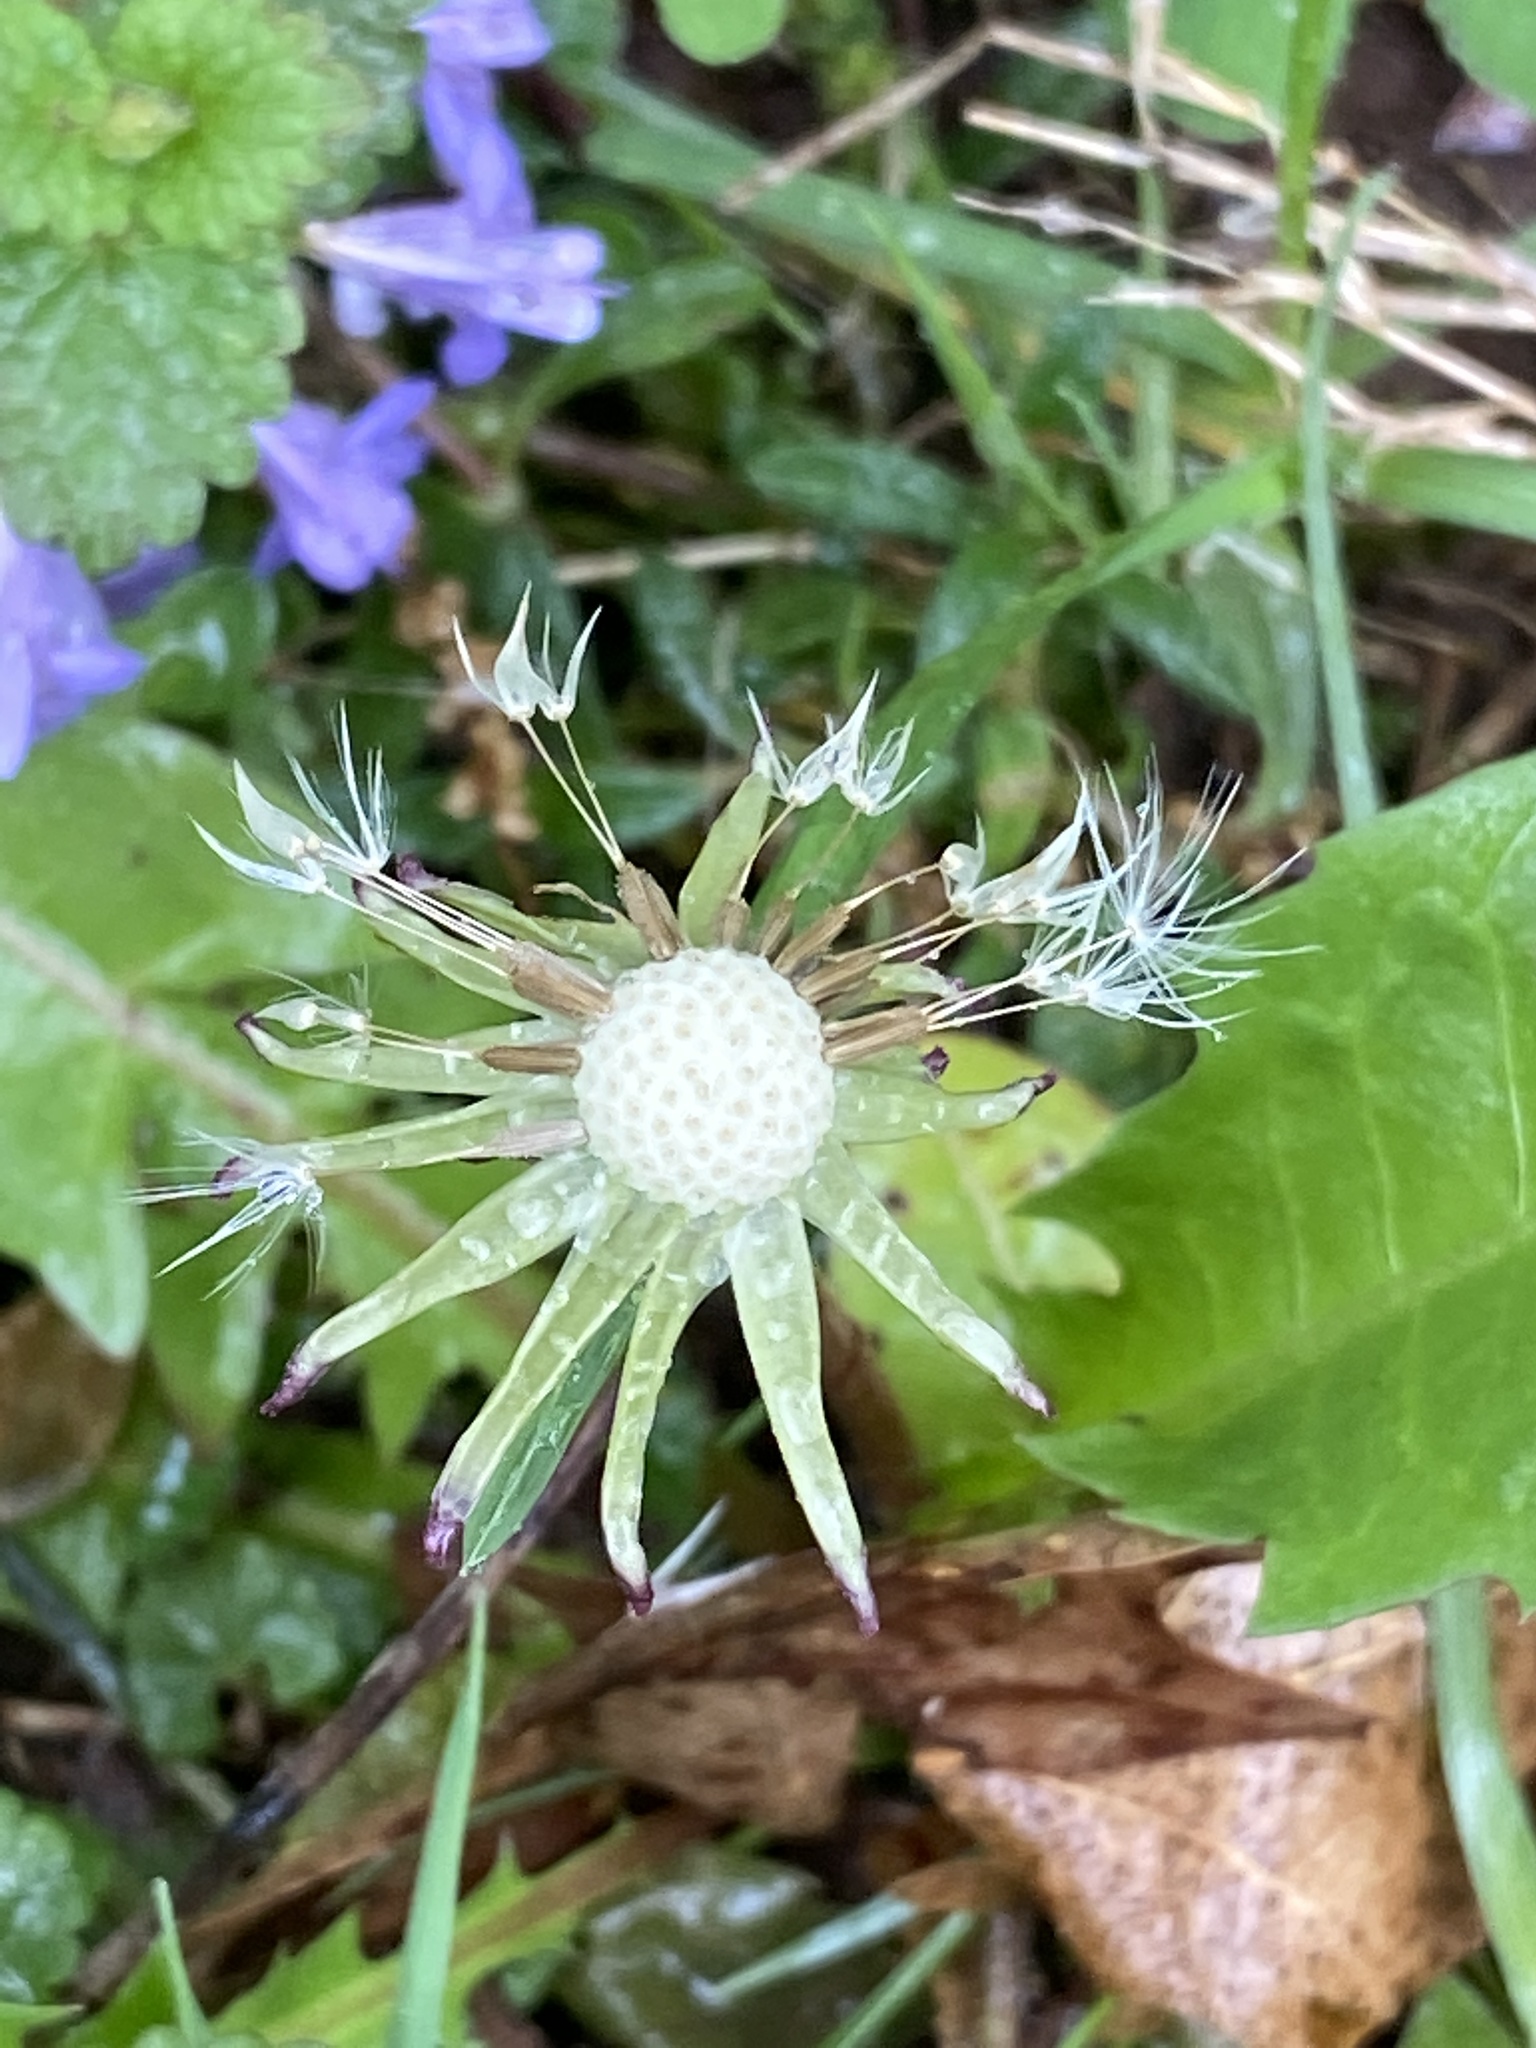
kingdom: Plantae
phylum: Tracheophyta
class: Magnoliopsida
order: Asterales
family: Asteraceae
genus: Taraxacum
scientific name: Taraxacum officinale
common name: Common dandelion
